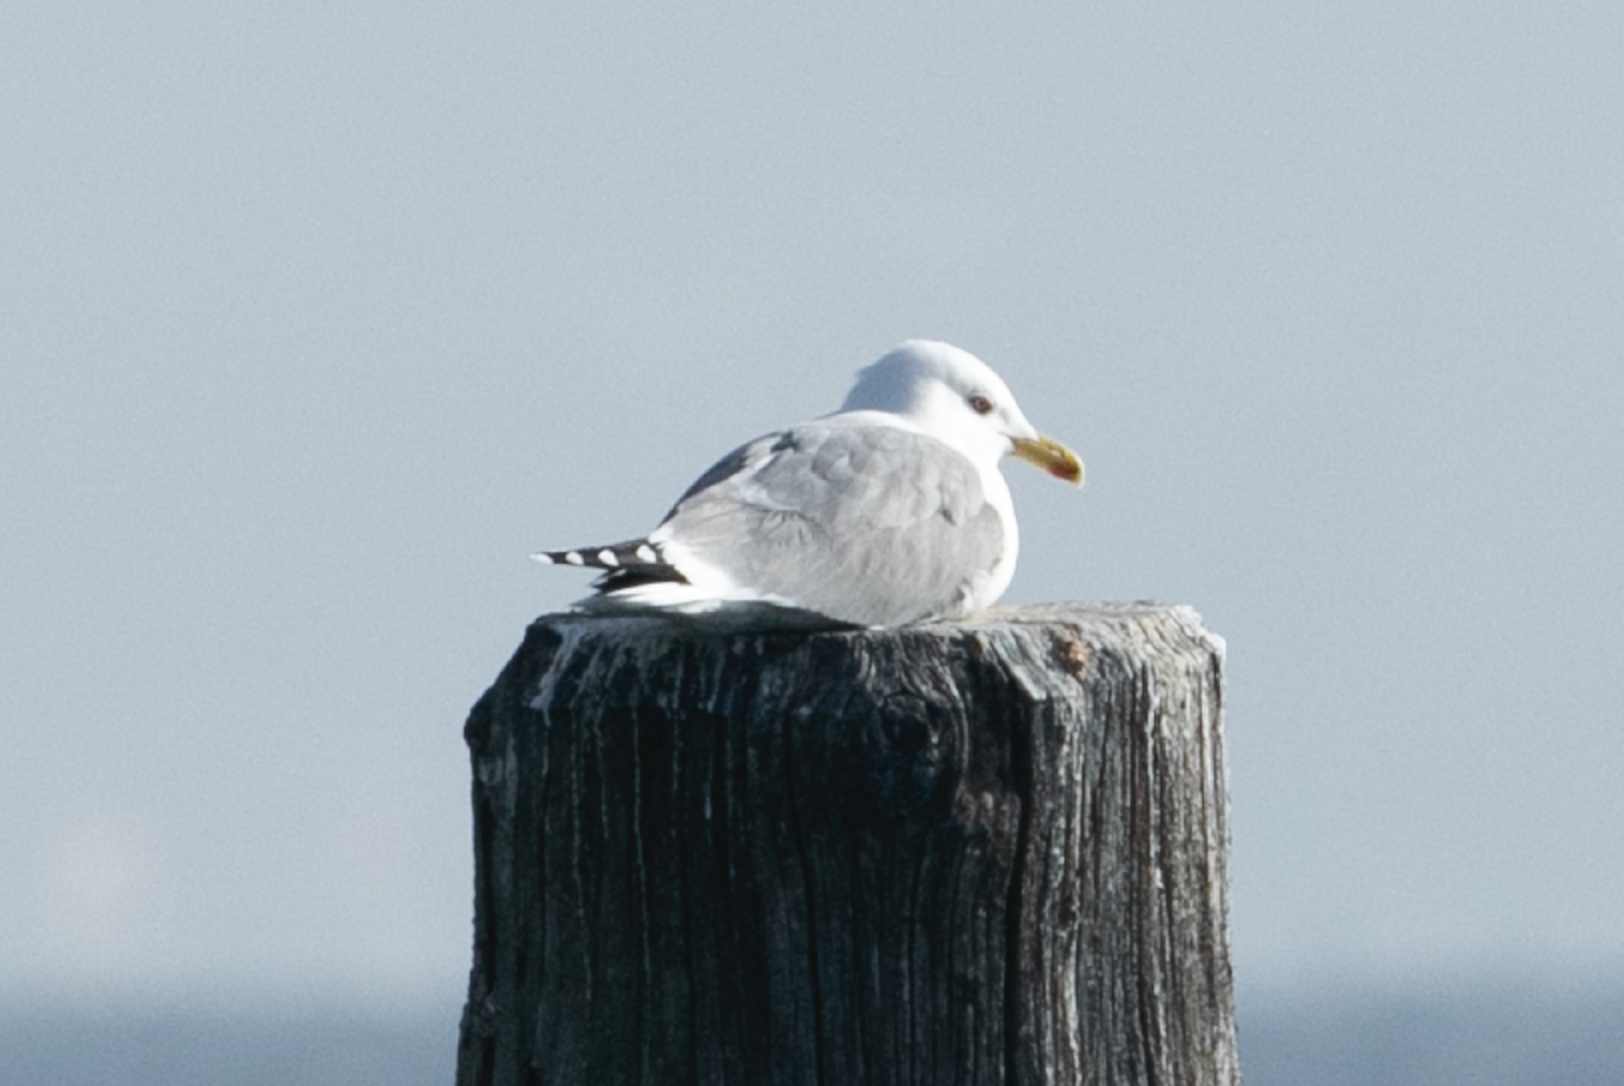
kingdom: Animalia
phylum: Chordata
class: Aves
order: Charadriiformes
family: Laridae
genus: Larus
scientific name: Larus michahellis
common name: Yellow-legged gull
